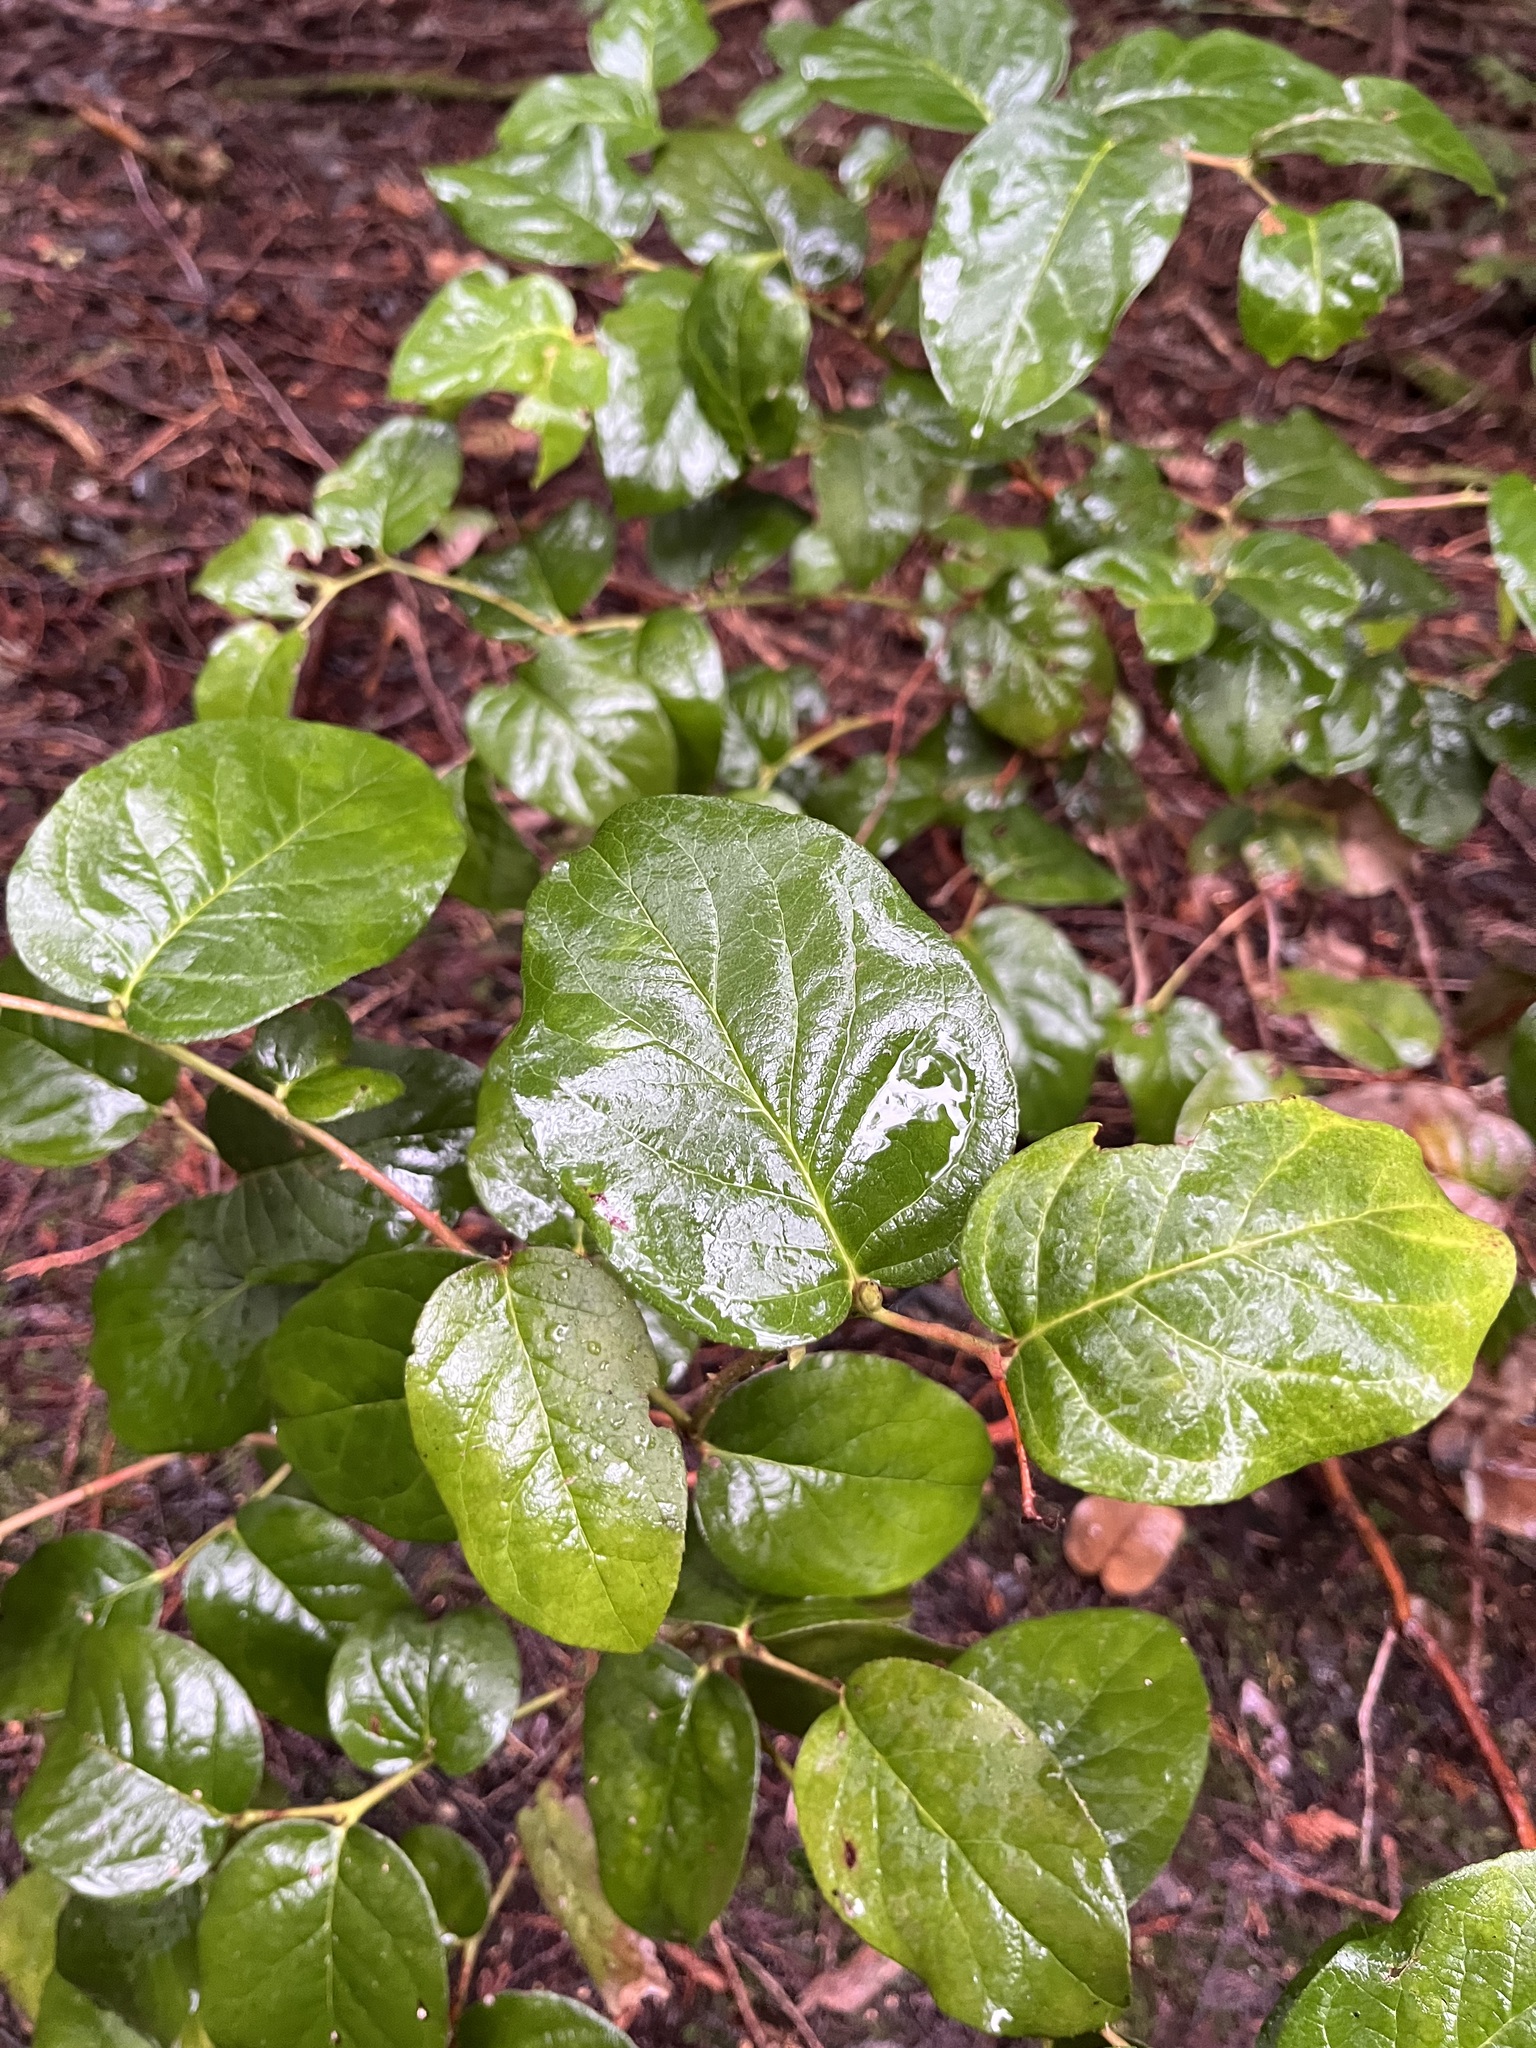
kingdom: Plantae
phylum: Tracheophyta
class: Magnoliopsida
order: Ericales
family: Ericaceae
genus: Gaultheria
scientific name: Gaultheria shallon
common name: Shallon
